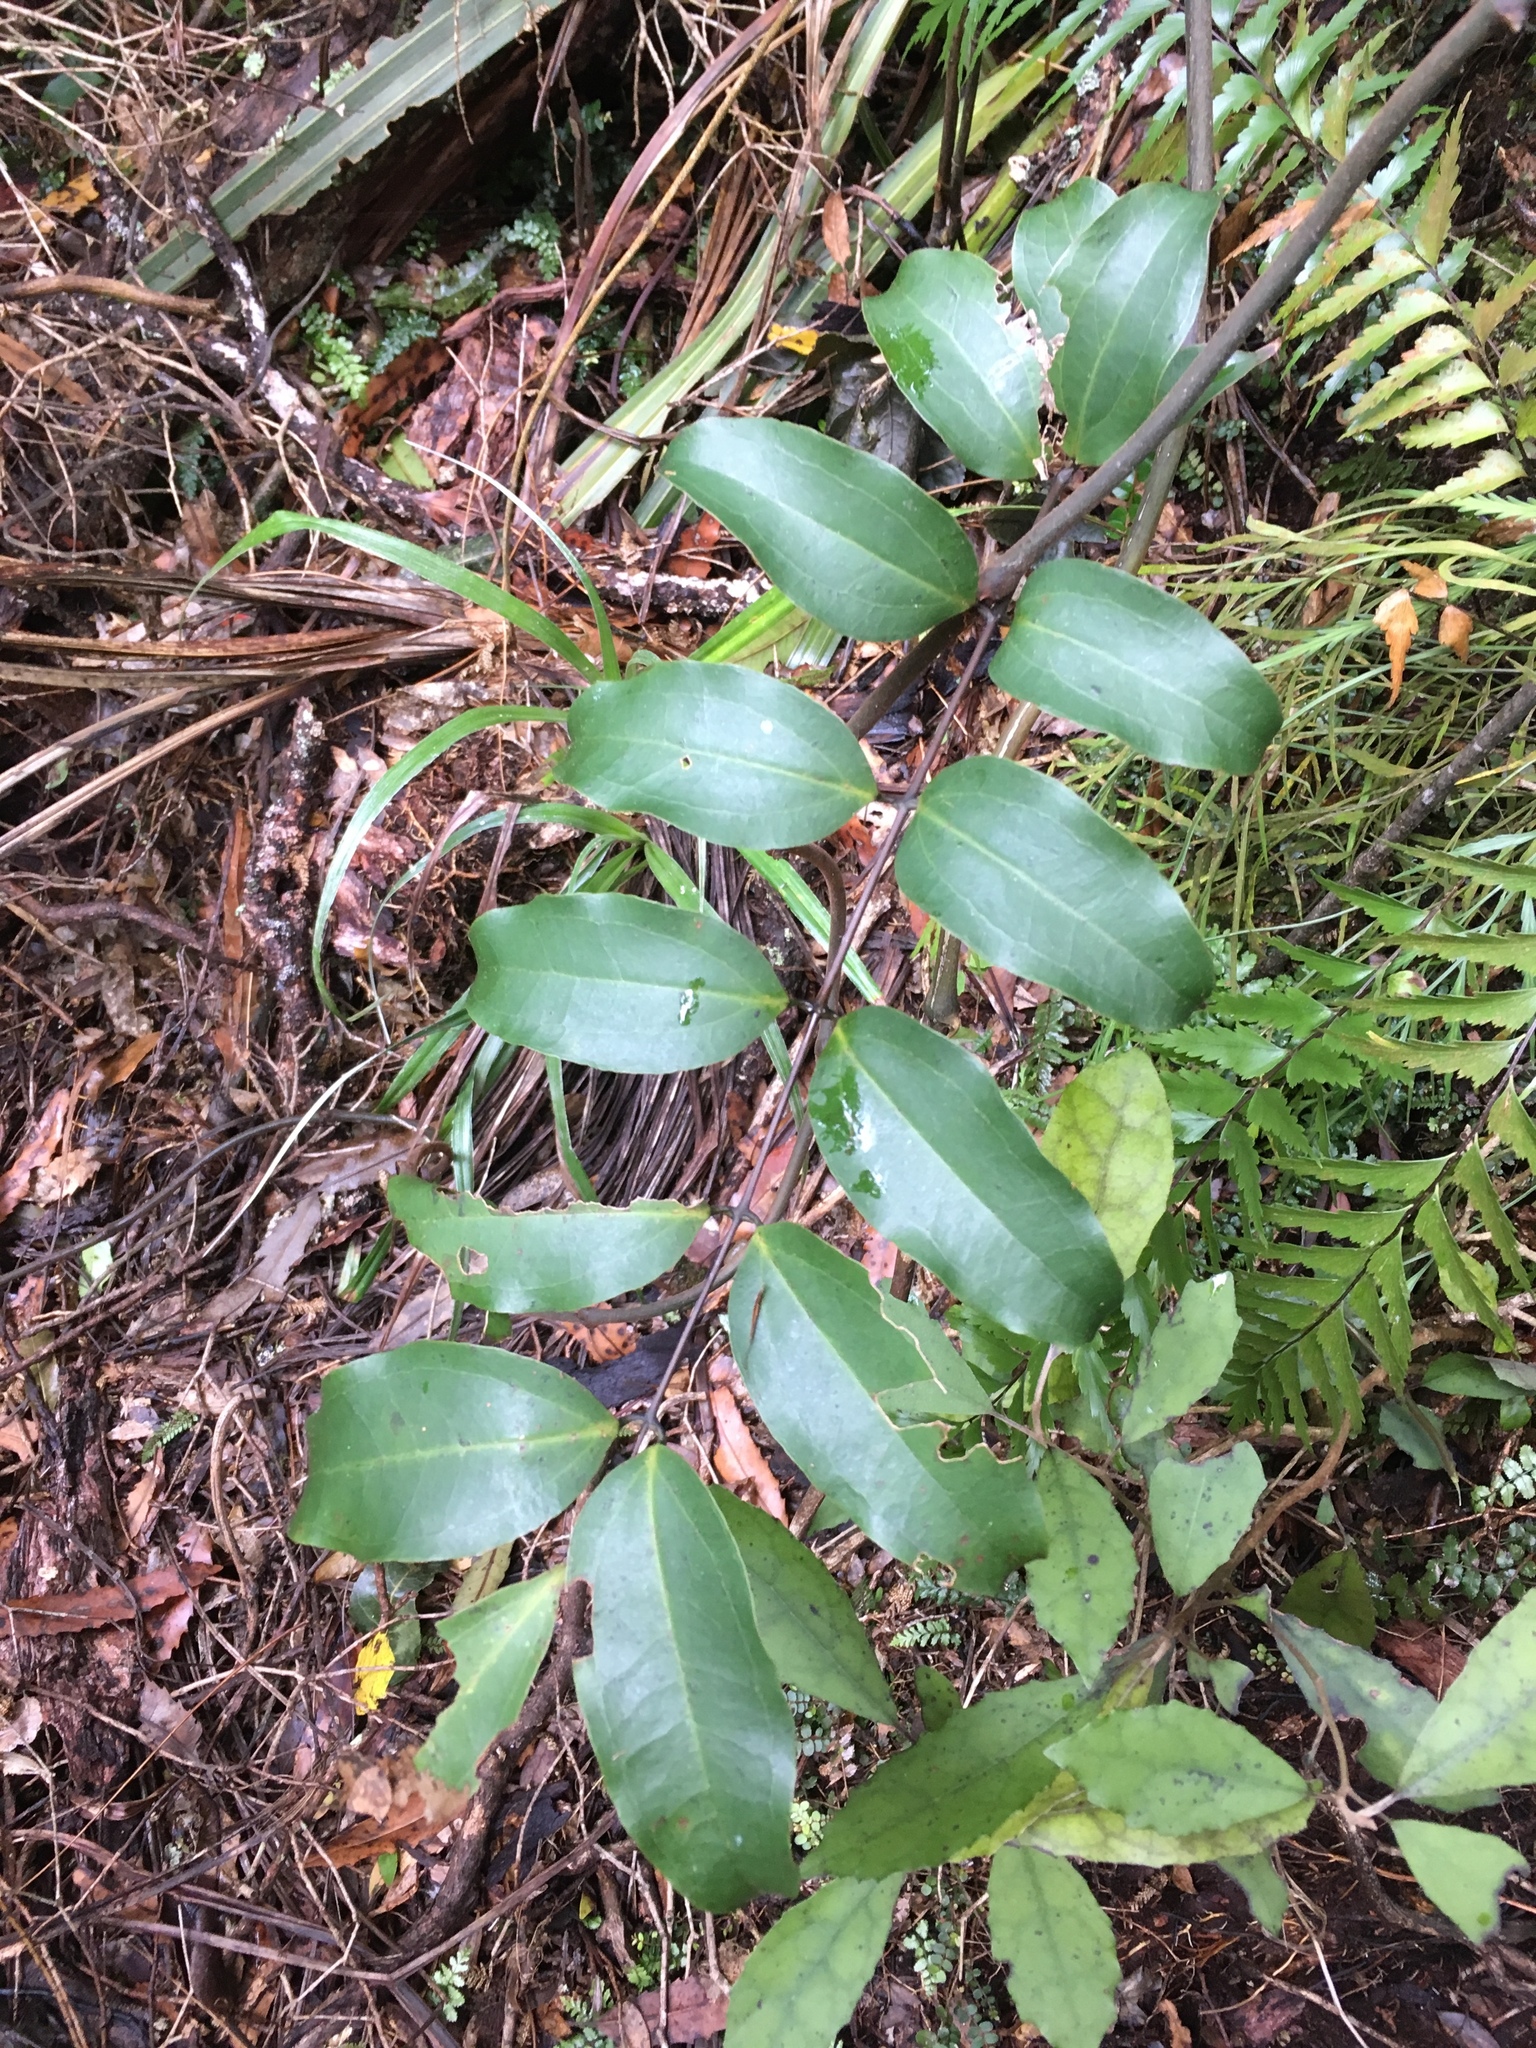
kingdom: Plantae
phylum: Tracheophyta
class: Liliopsida
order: Liliales
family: Ripogonaceae
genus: Ripogonum
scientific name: Ripogonum scandens
